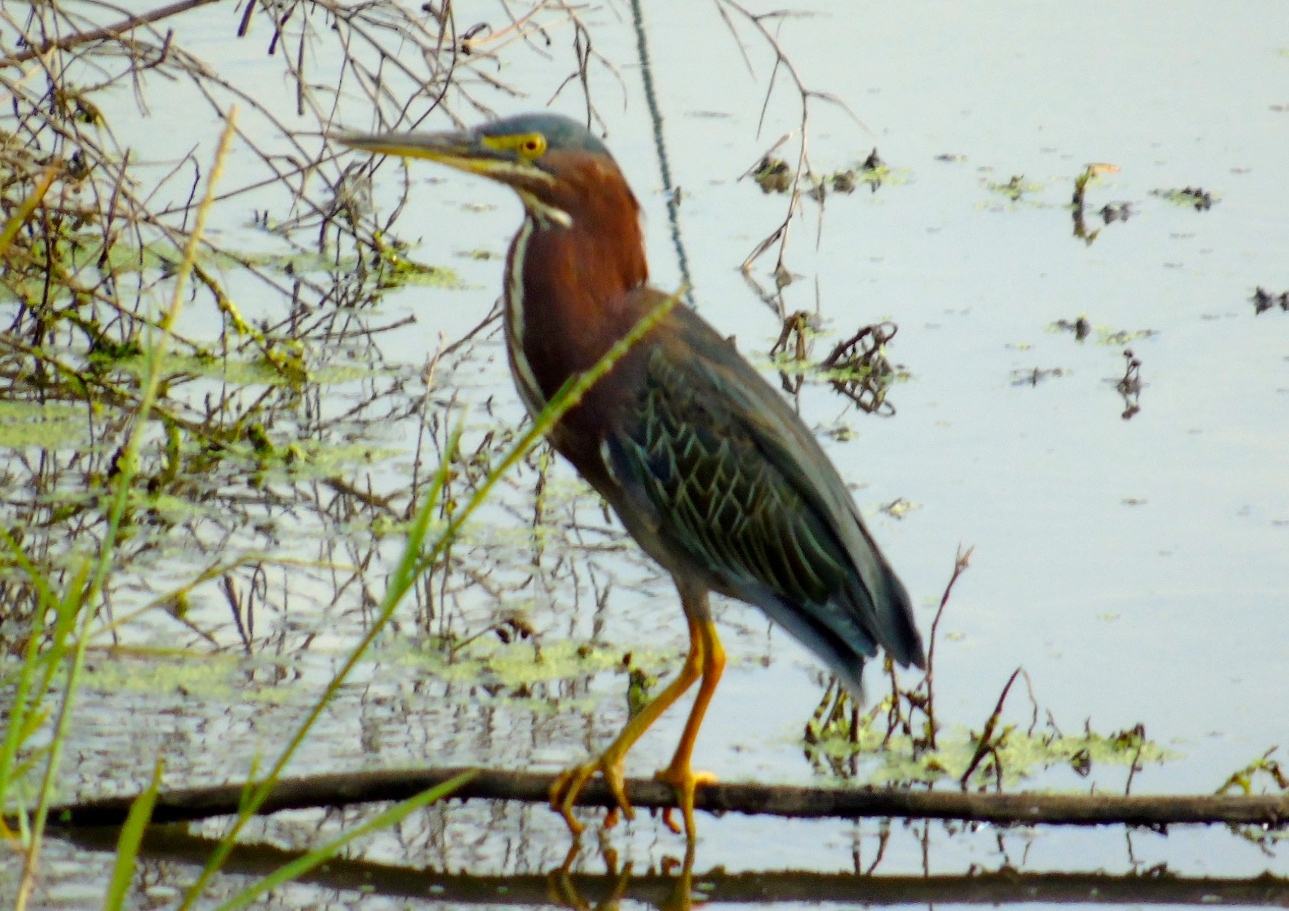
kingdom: Animalia
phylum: Chordata
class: Aves
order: Pelecaniformes
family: Ardeidae
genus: Butorides
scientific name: Butorides virescens
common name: Green heron
